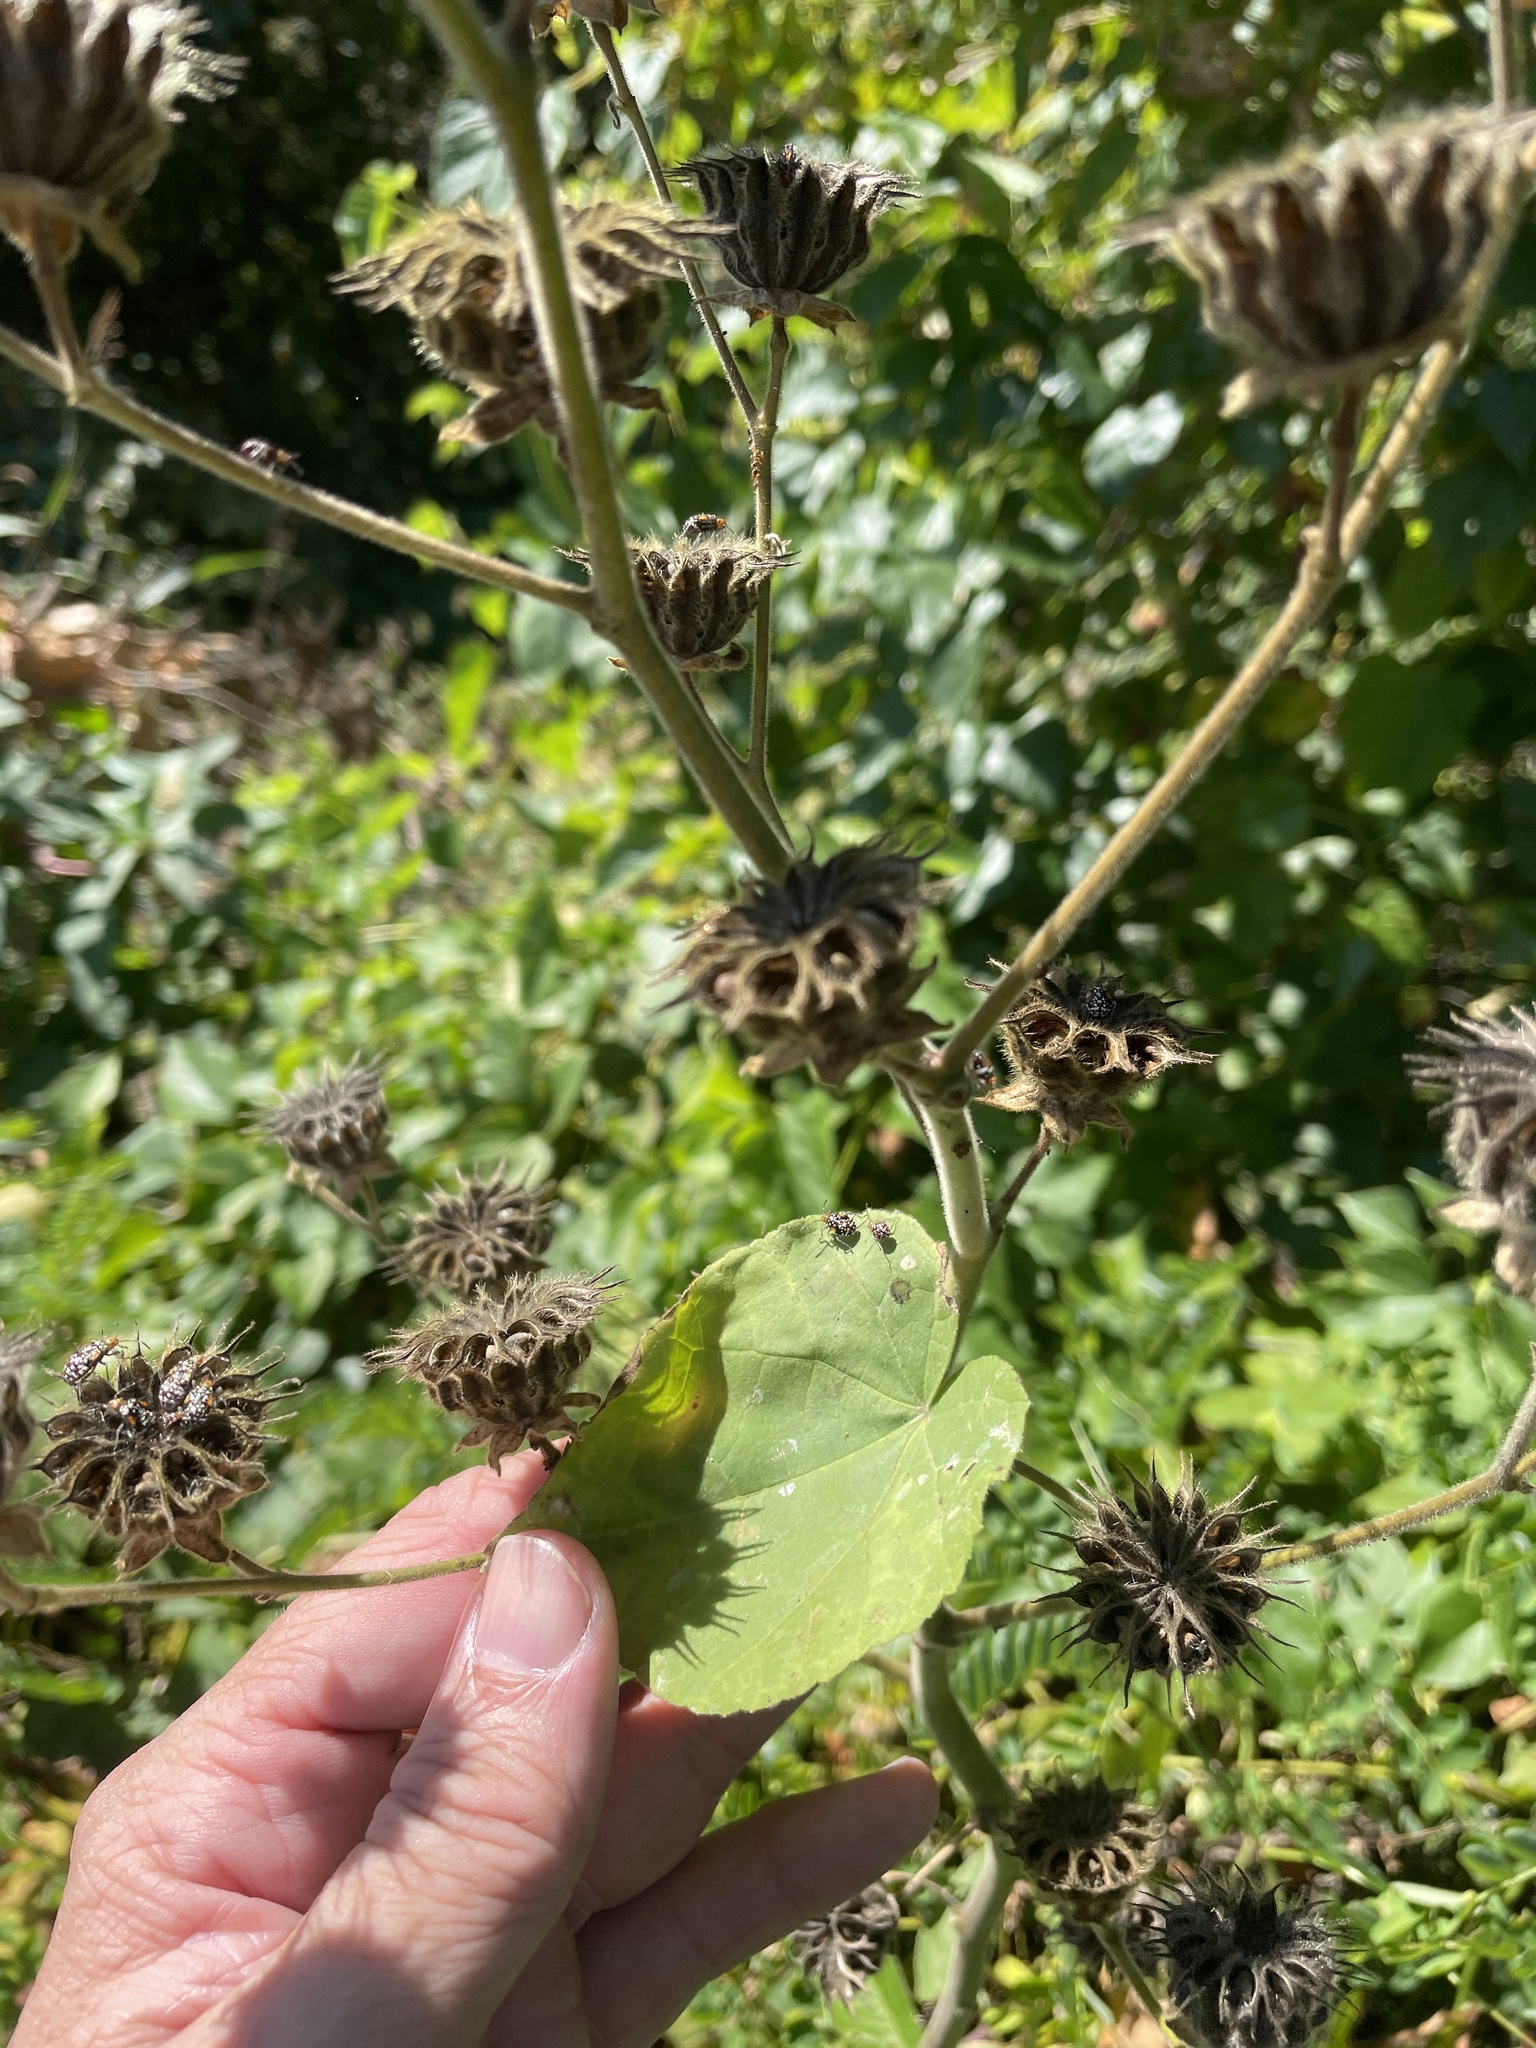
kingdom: Plantae
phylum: Tracheophyta
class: Magnoliopsida
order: Malvales
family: Malvaceae
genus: Abutilon
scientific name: Abutilon theophrasti
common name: Velvetleaf
